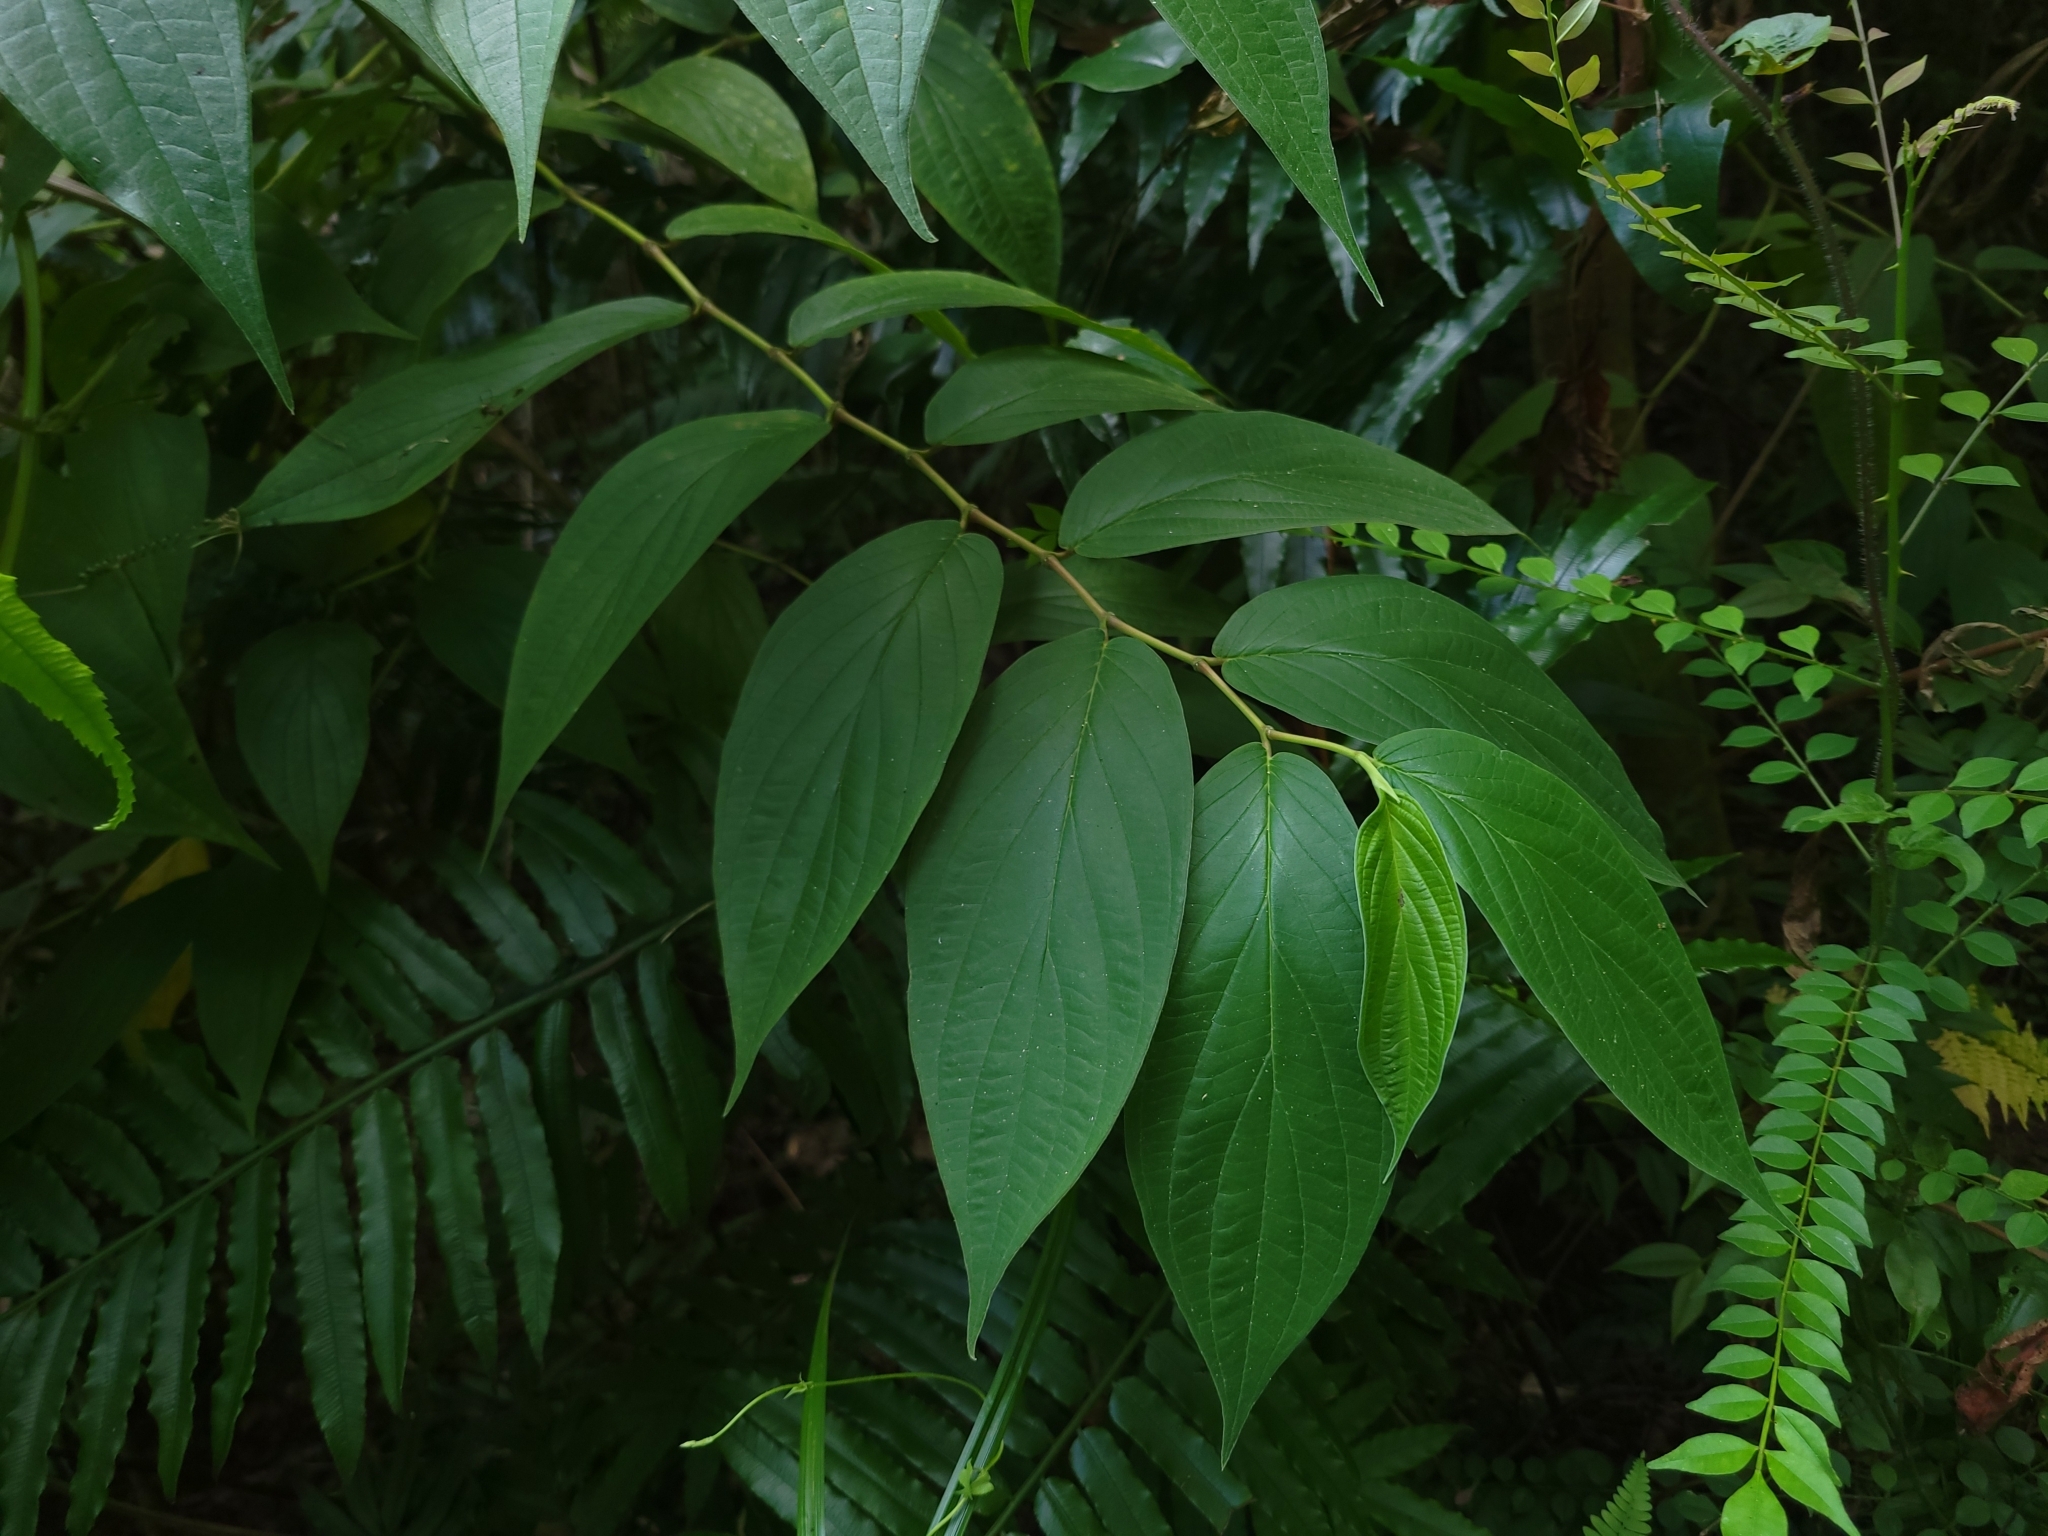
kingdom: Plantae
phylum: Tracheophyta
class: Magnoliopsida
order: Piperales
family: Piperaceae
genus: Piper
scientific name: Piper aduncum
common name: Spiked pepper
